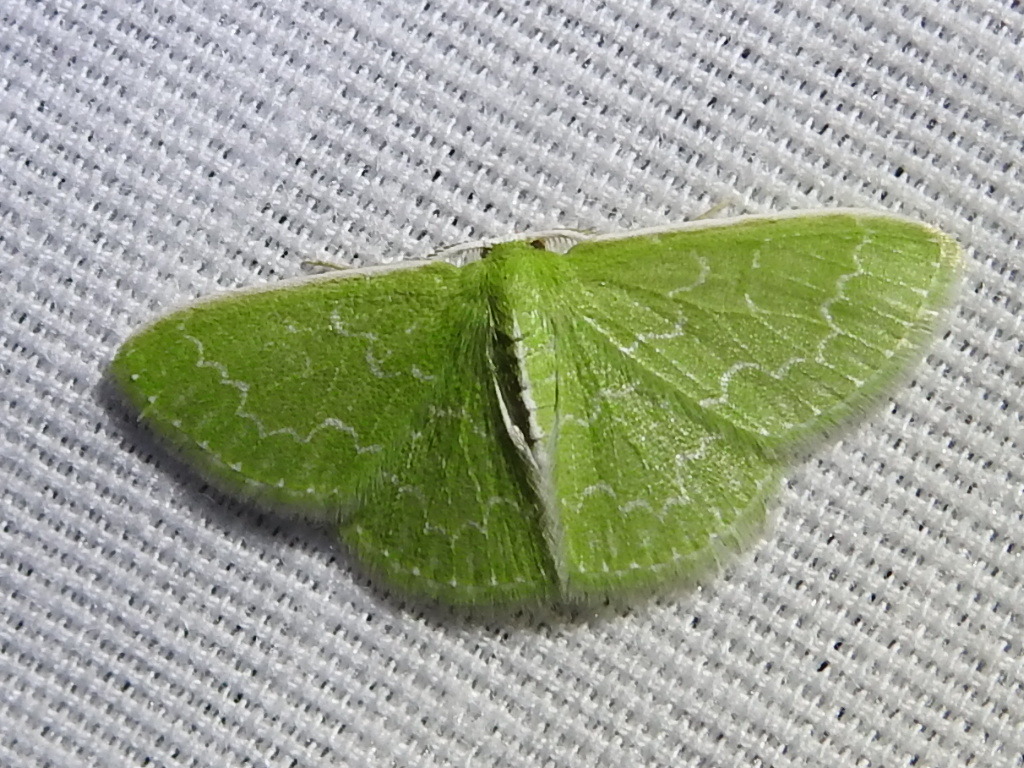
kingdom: Animalia
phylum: Arthropoda
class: Insecta
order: Lepidoptera
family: Geometridae
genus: Synchlora
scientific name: Synchlora frondaria
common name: Southern emerald
